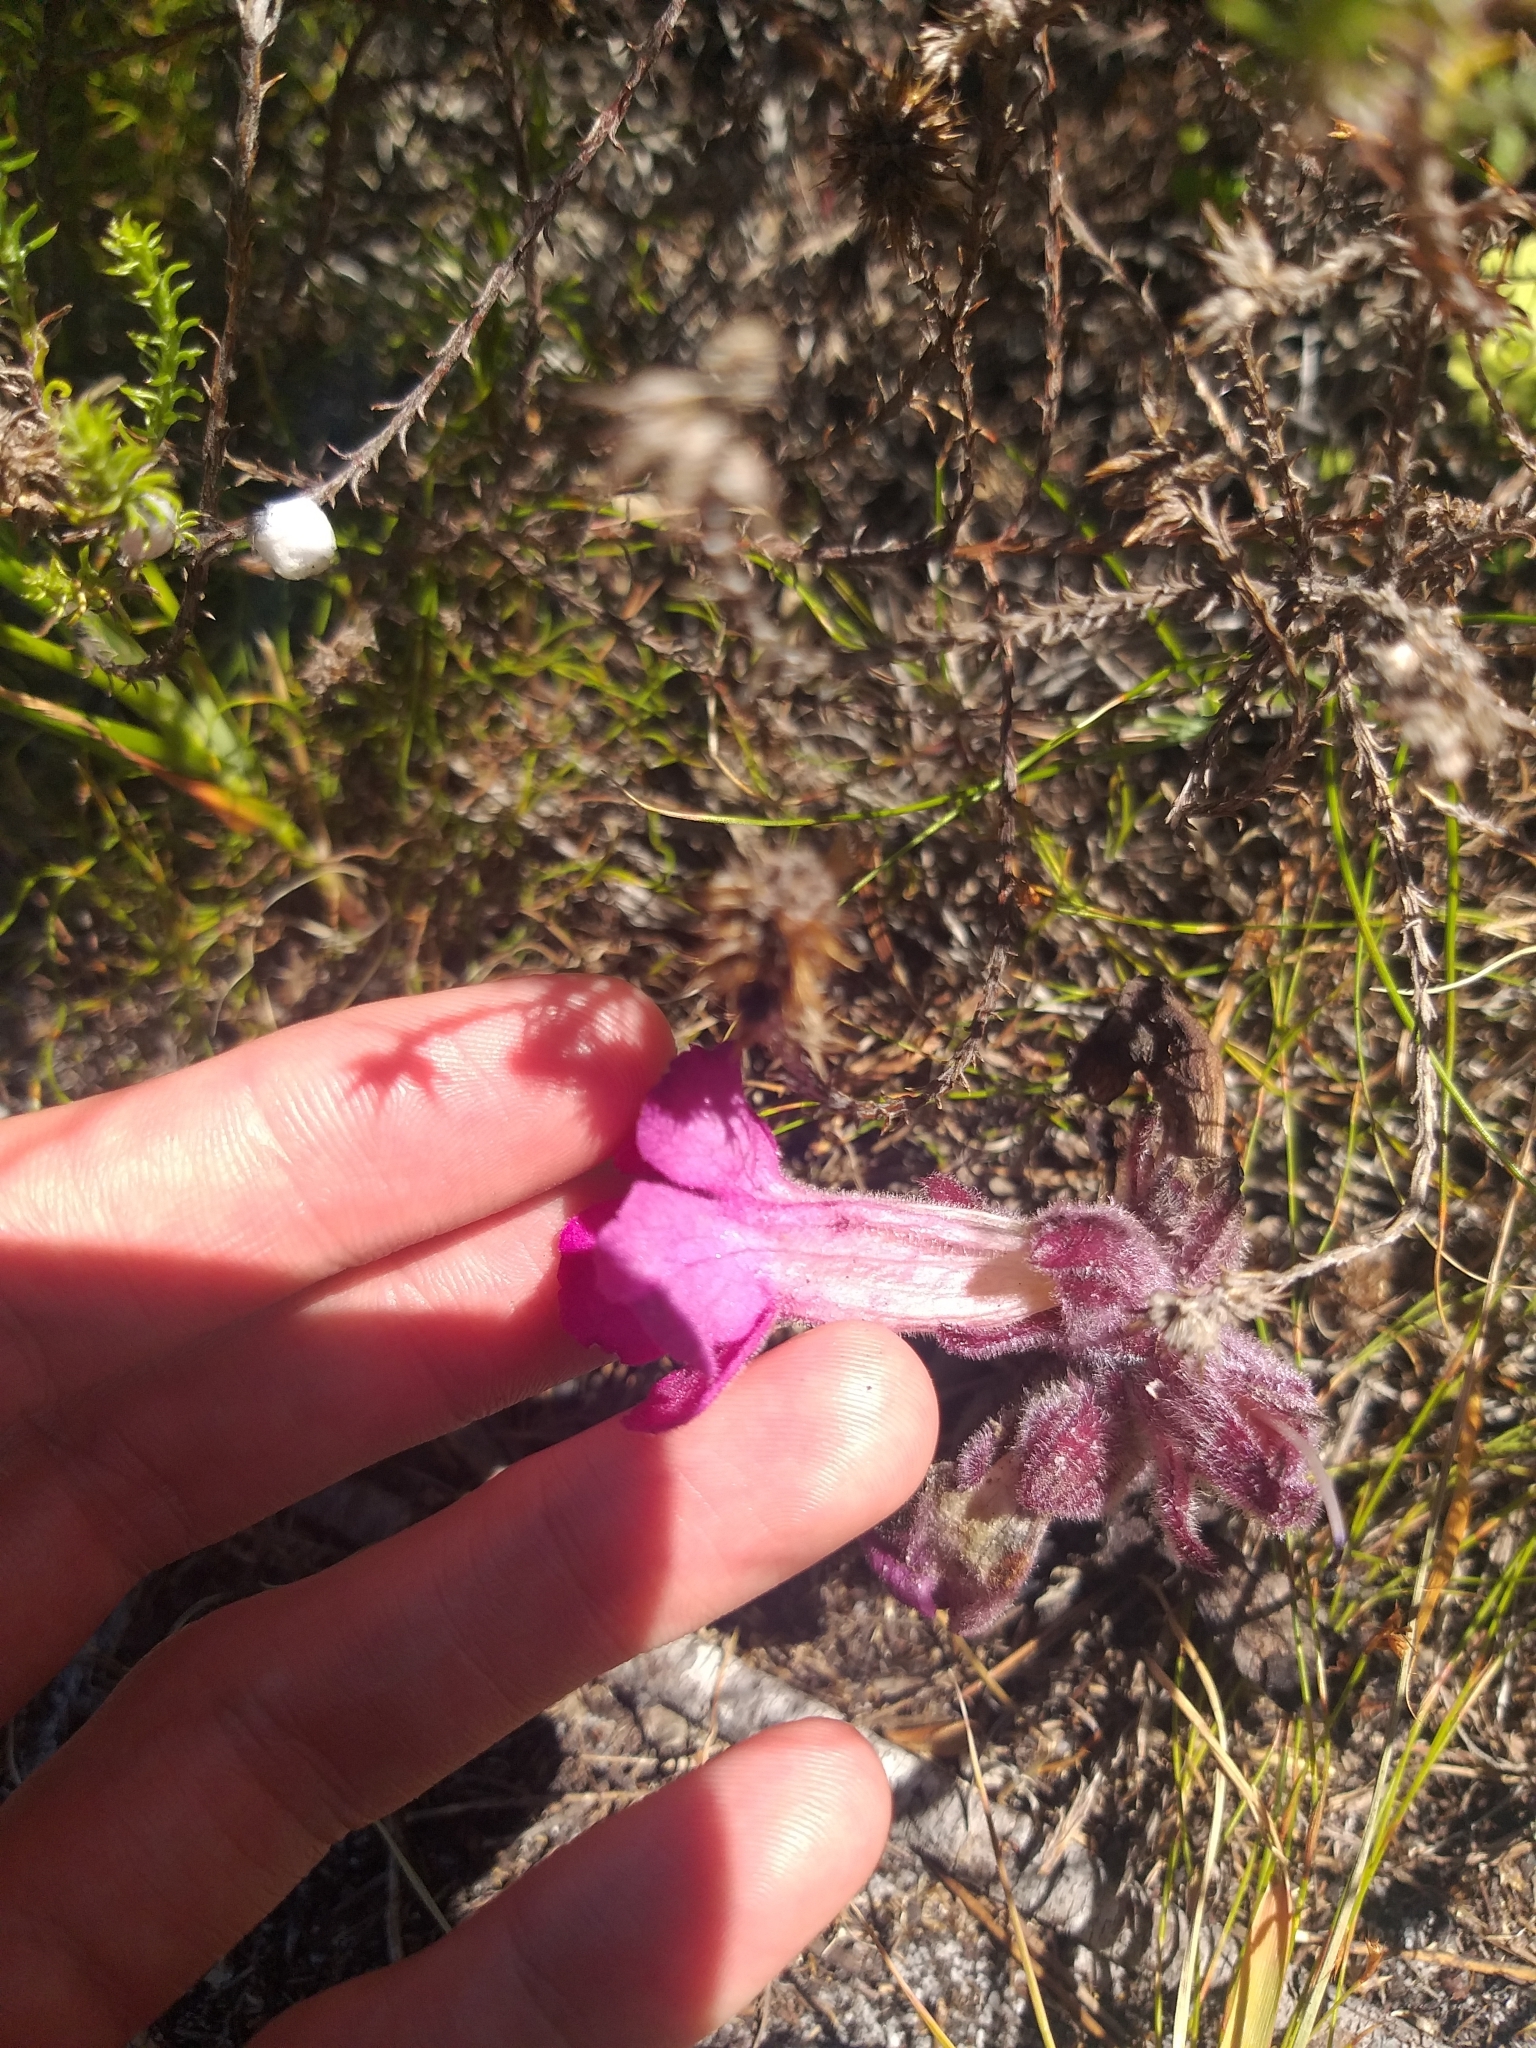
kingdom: Plantae
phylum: Tracheophyta
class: Magnoliopsida
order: Lamiales
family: Orobanchaceae
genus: Harveya
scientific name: Harveya purpurea
